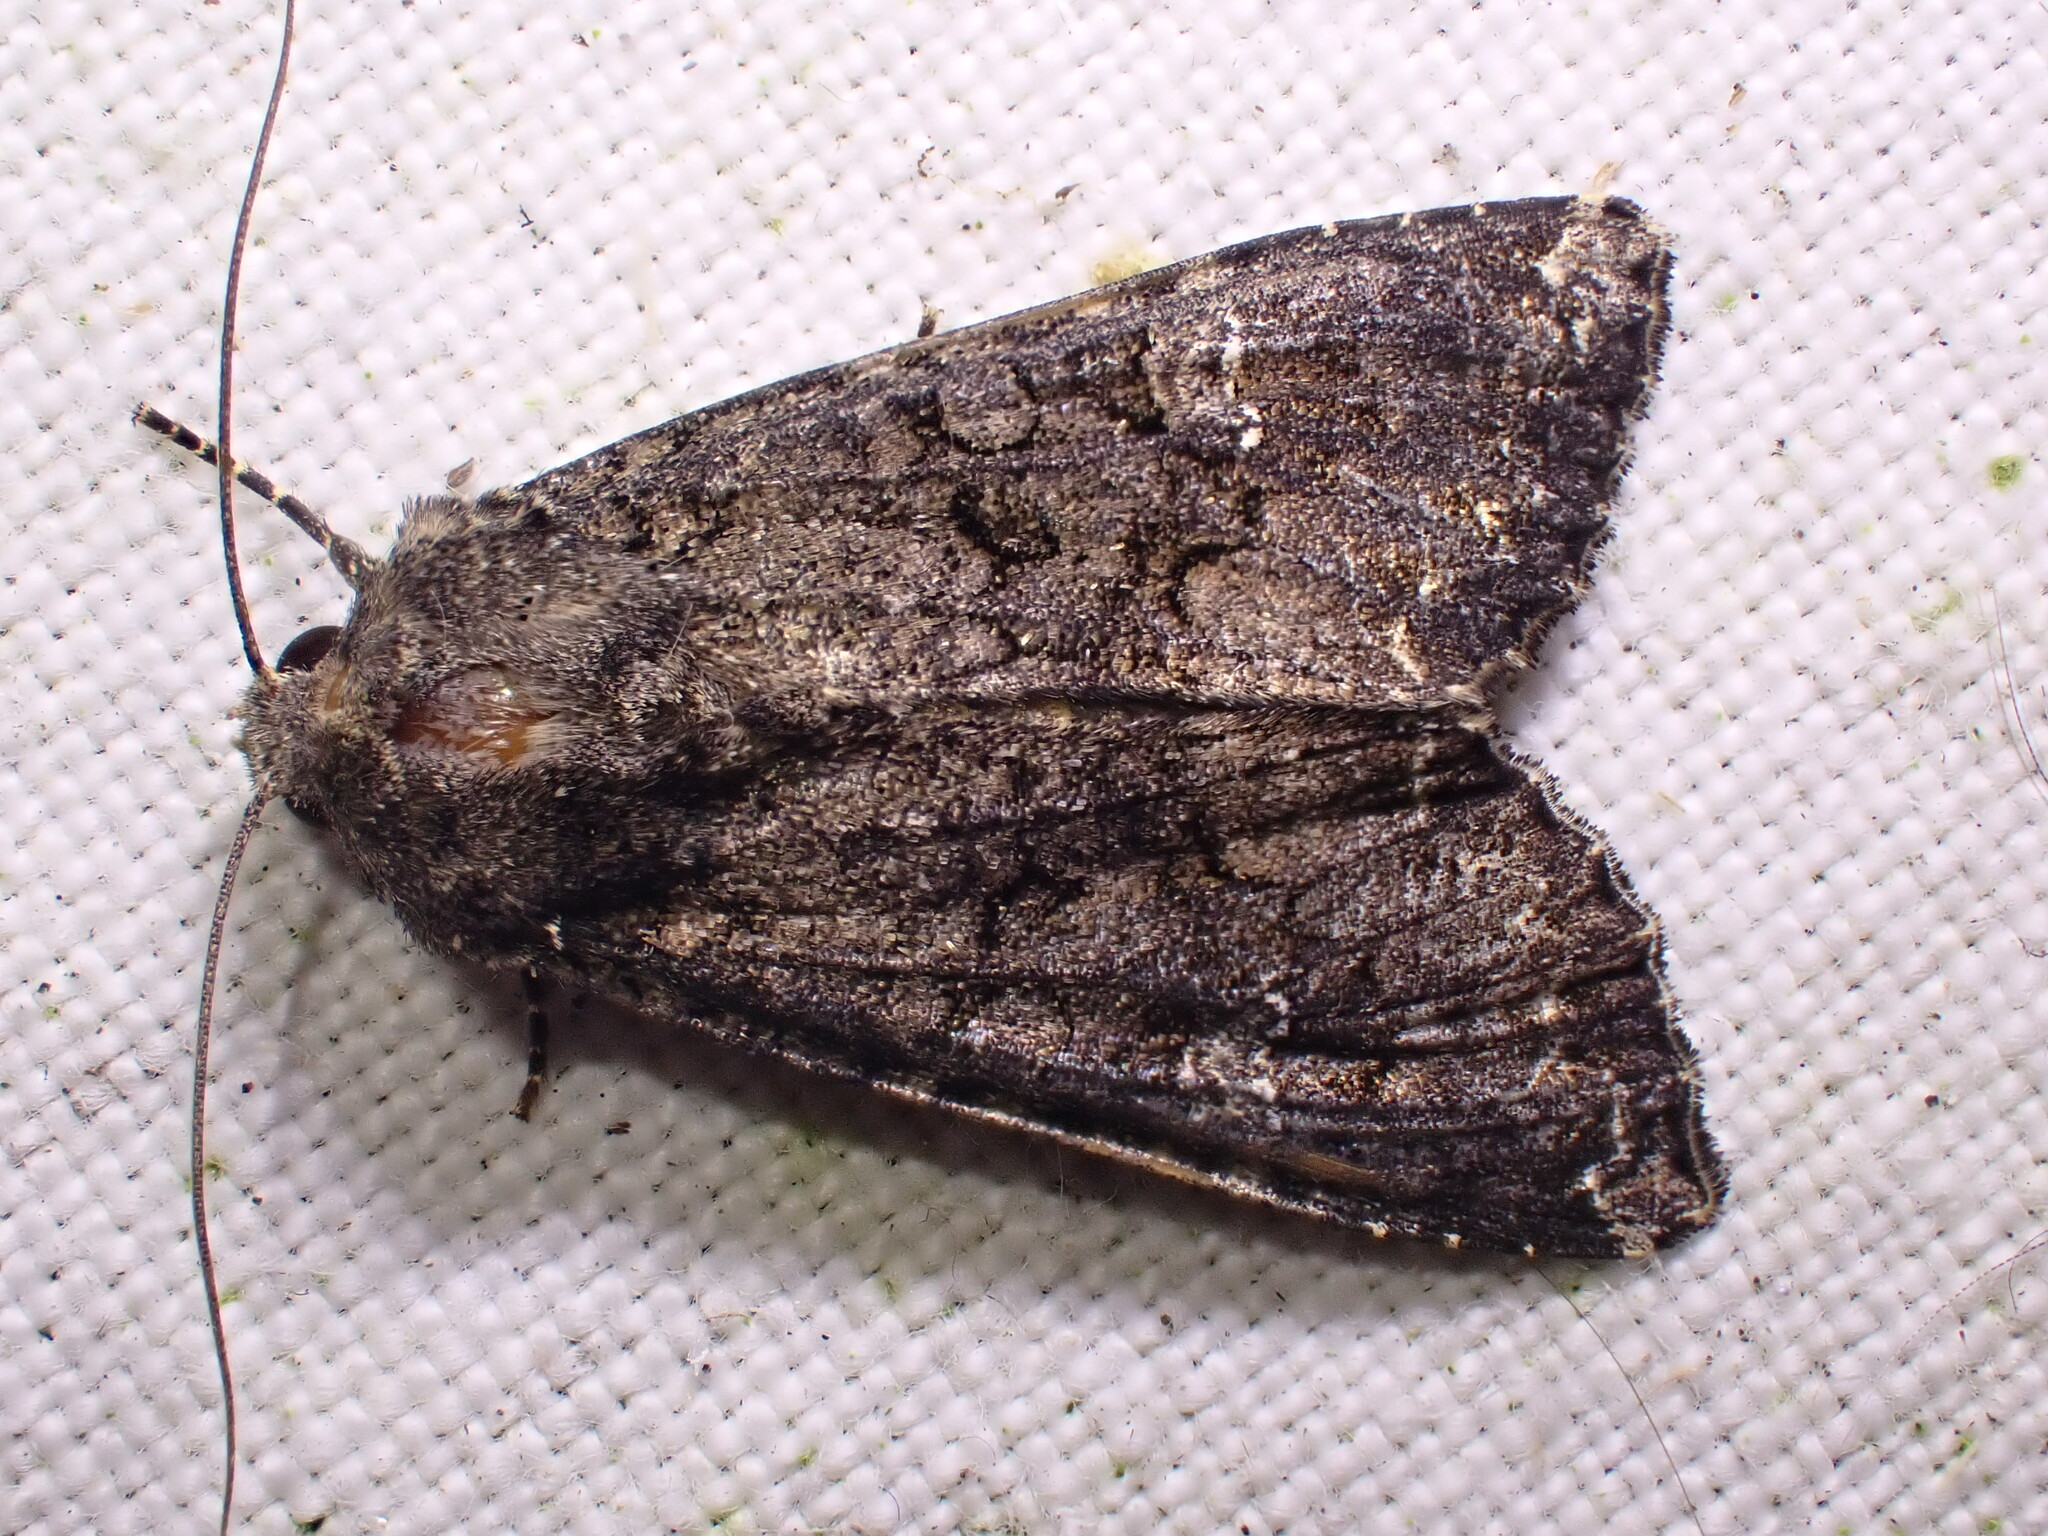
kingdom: Animalia
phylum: Arthropoda
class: Insecta
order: Lepidoptera
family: Noctuidae
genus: Mamestra
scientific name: Mamestra brassicae
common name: Cabbage moth
